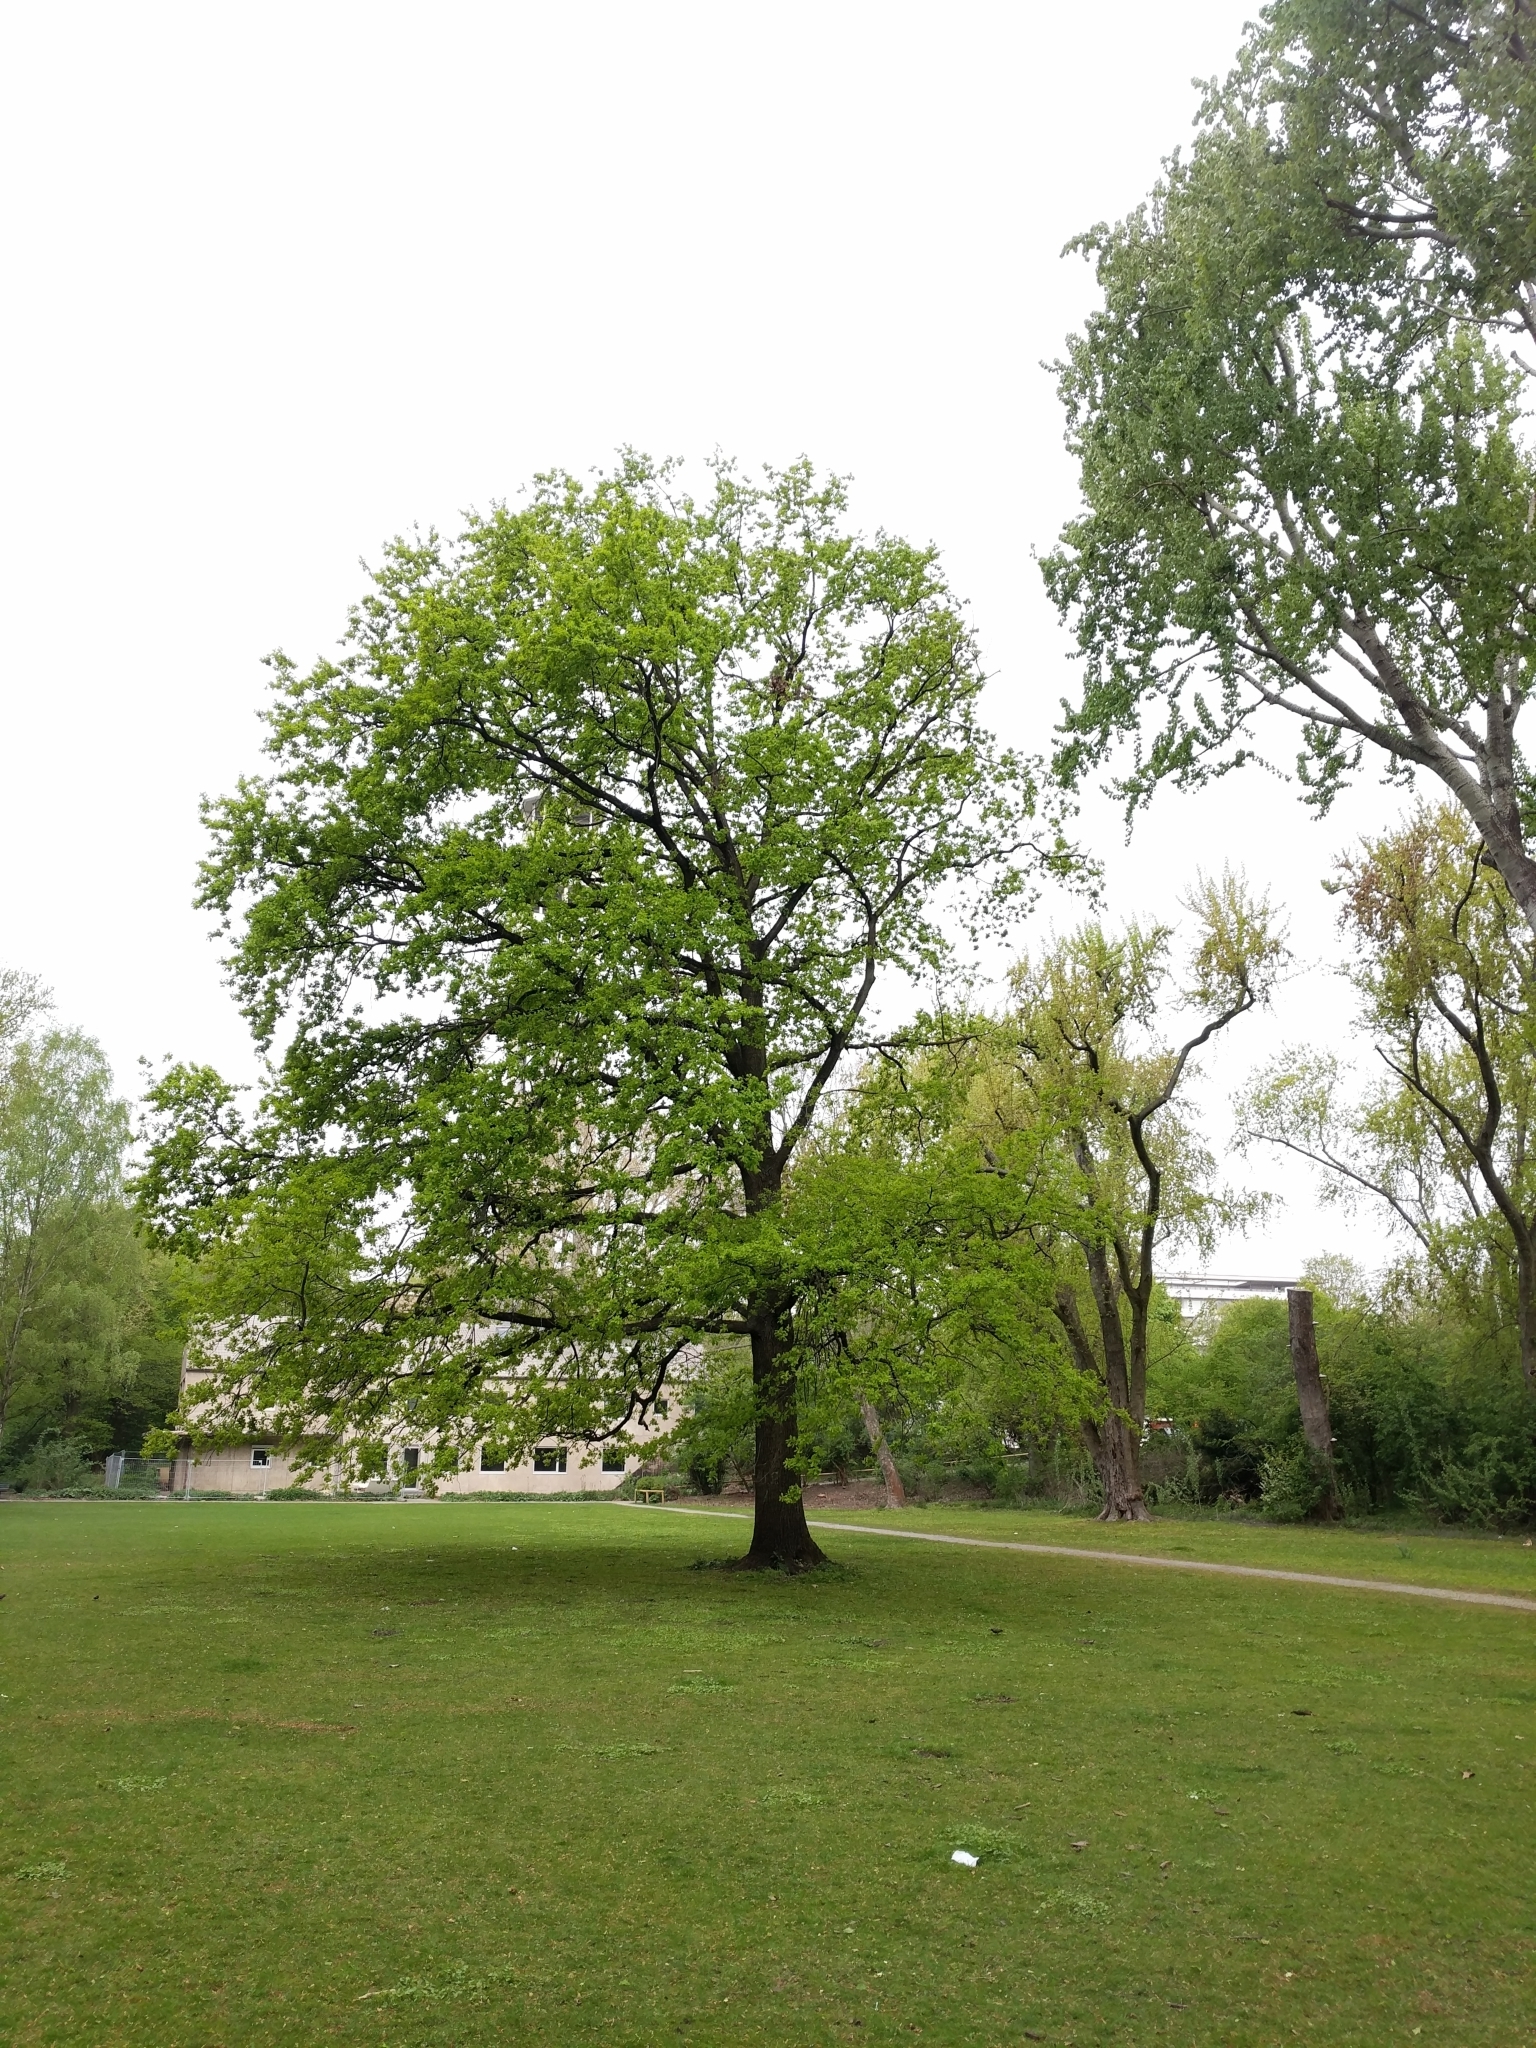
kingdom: Plantae
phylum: Tracheophyta
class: Magnoliopsida
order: Fagales
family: Fagaceae
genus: Quercus
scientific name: Quercus robur
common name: Pedunculate oak
